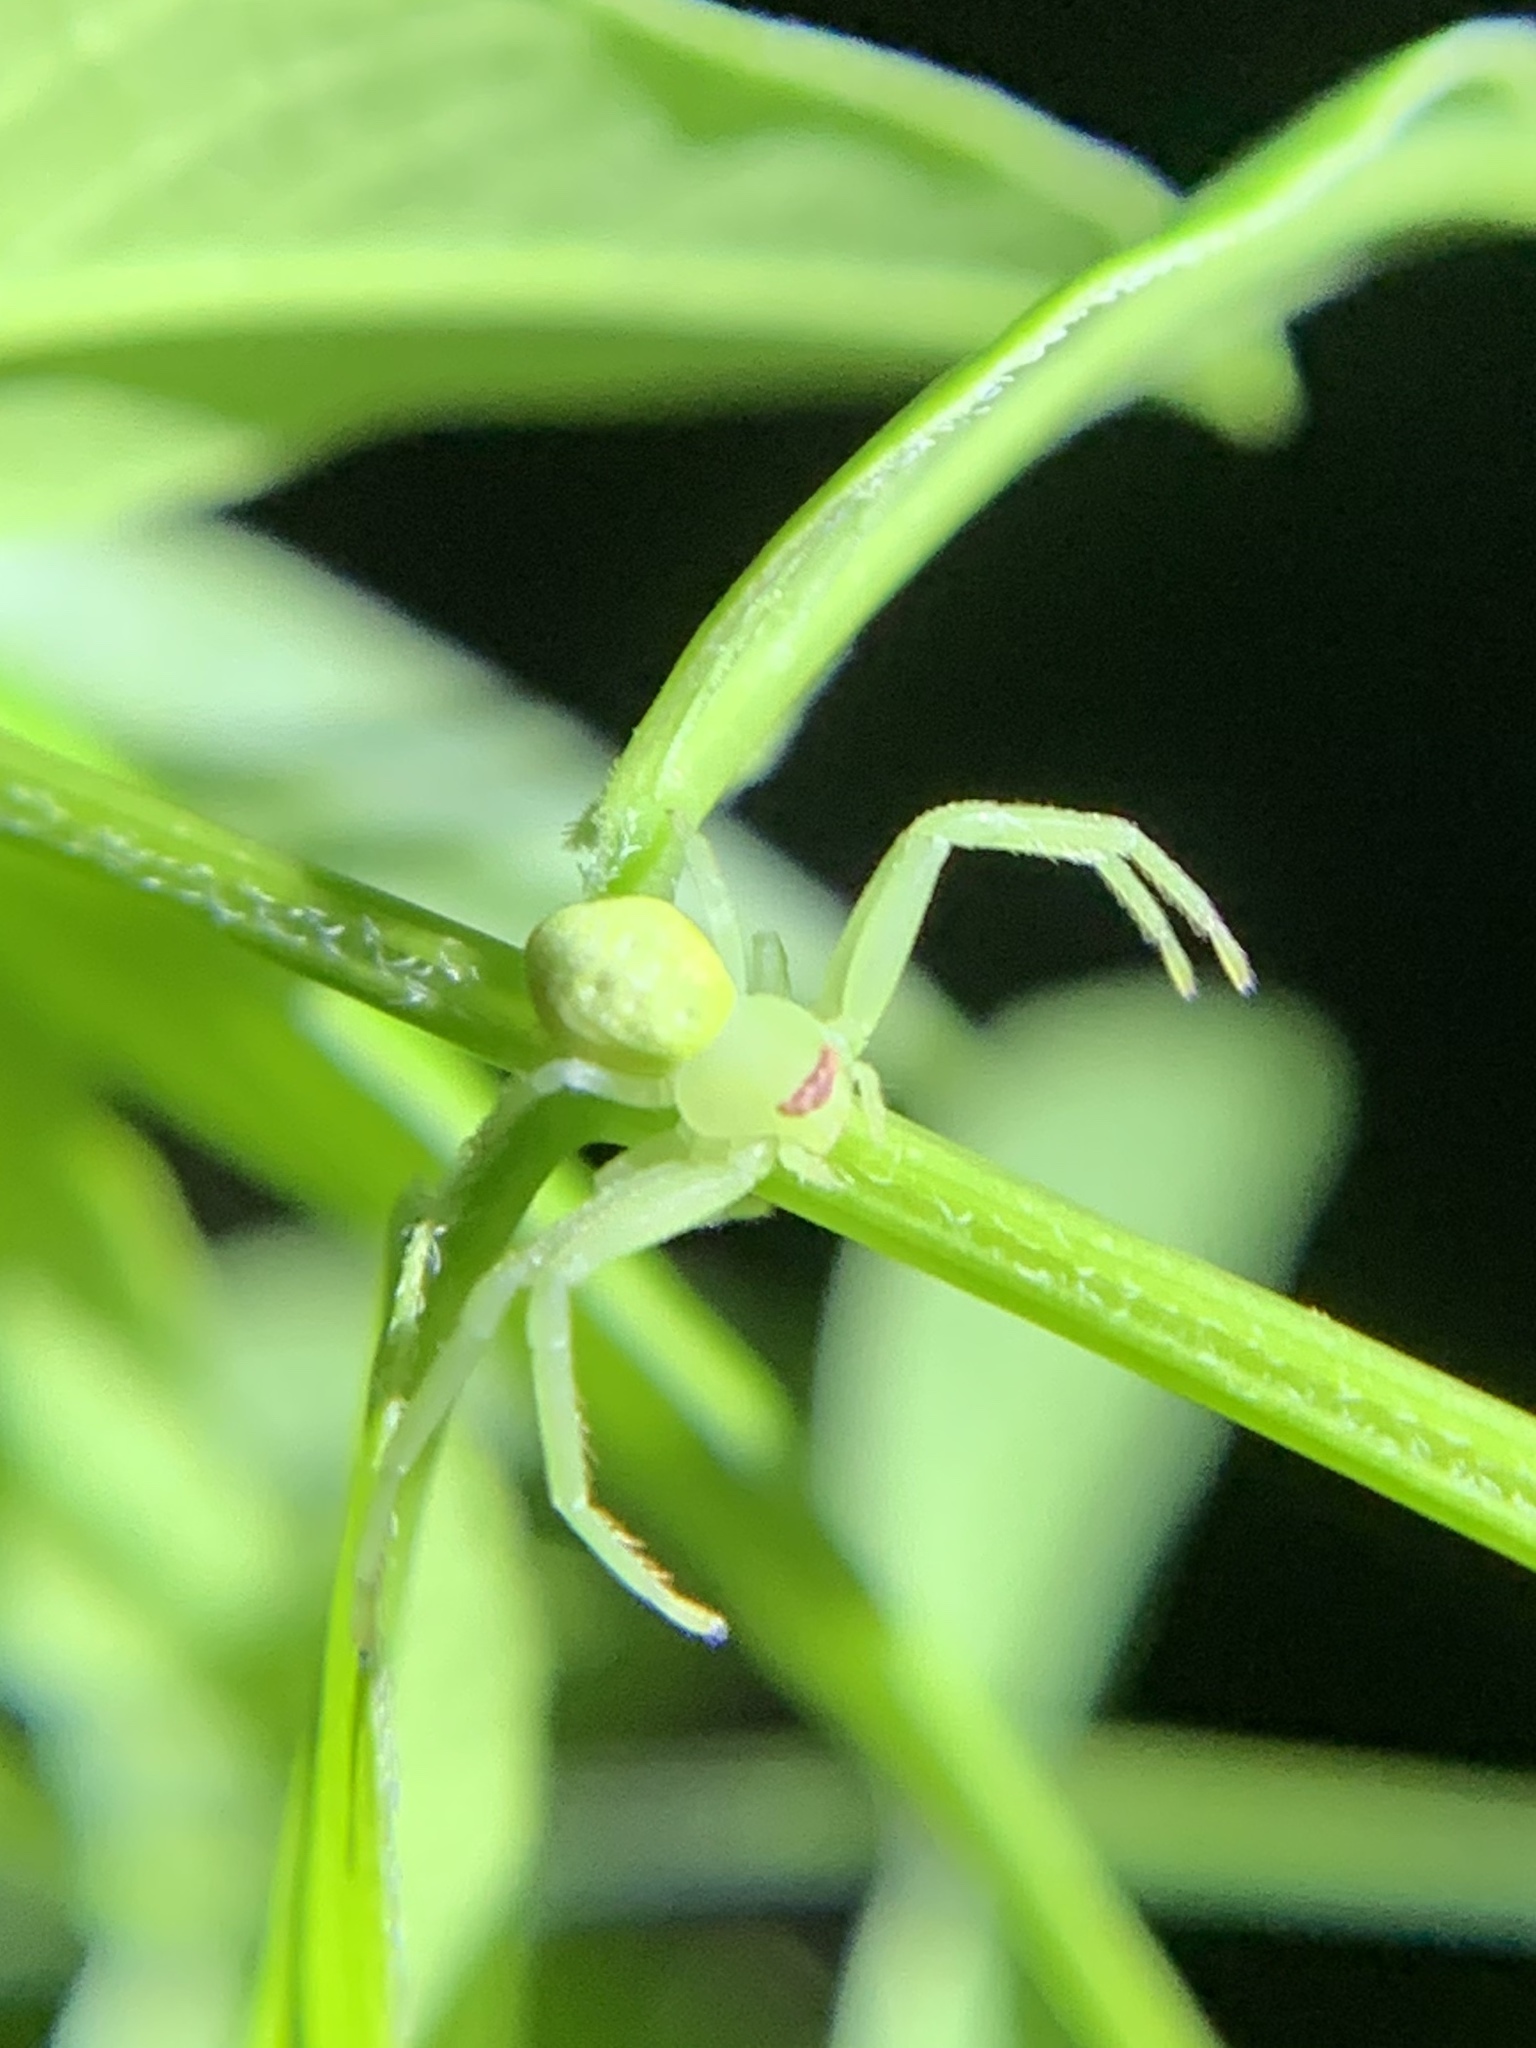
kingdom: Animalia
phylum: Arthropoda
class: Arachnida
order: Araneae
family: Thomisidae
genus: Misumessus
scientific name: Misumessus tamiami
